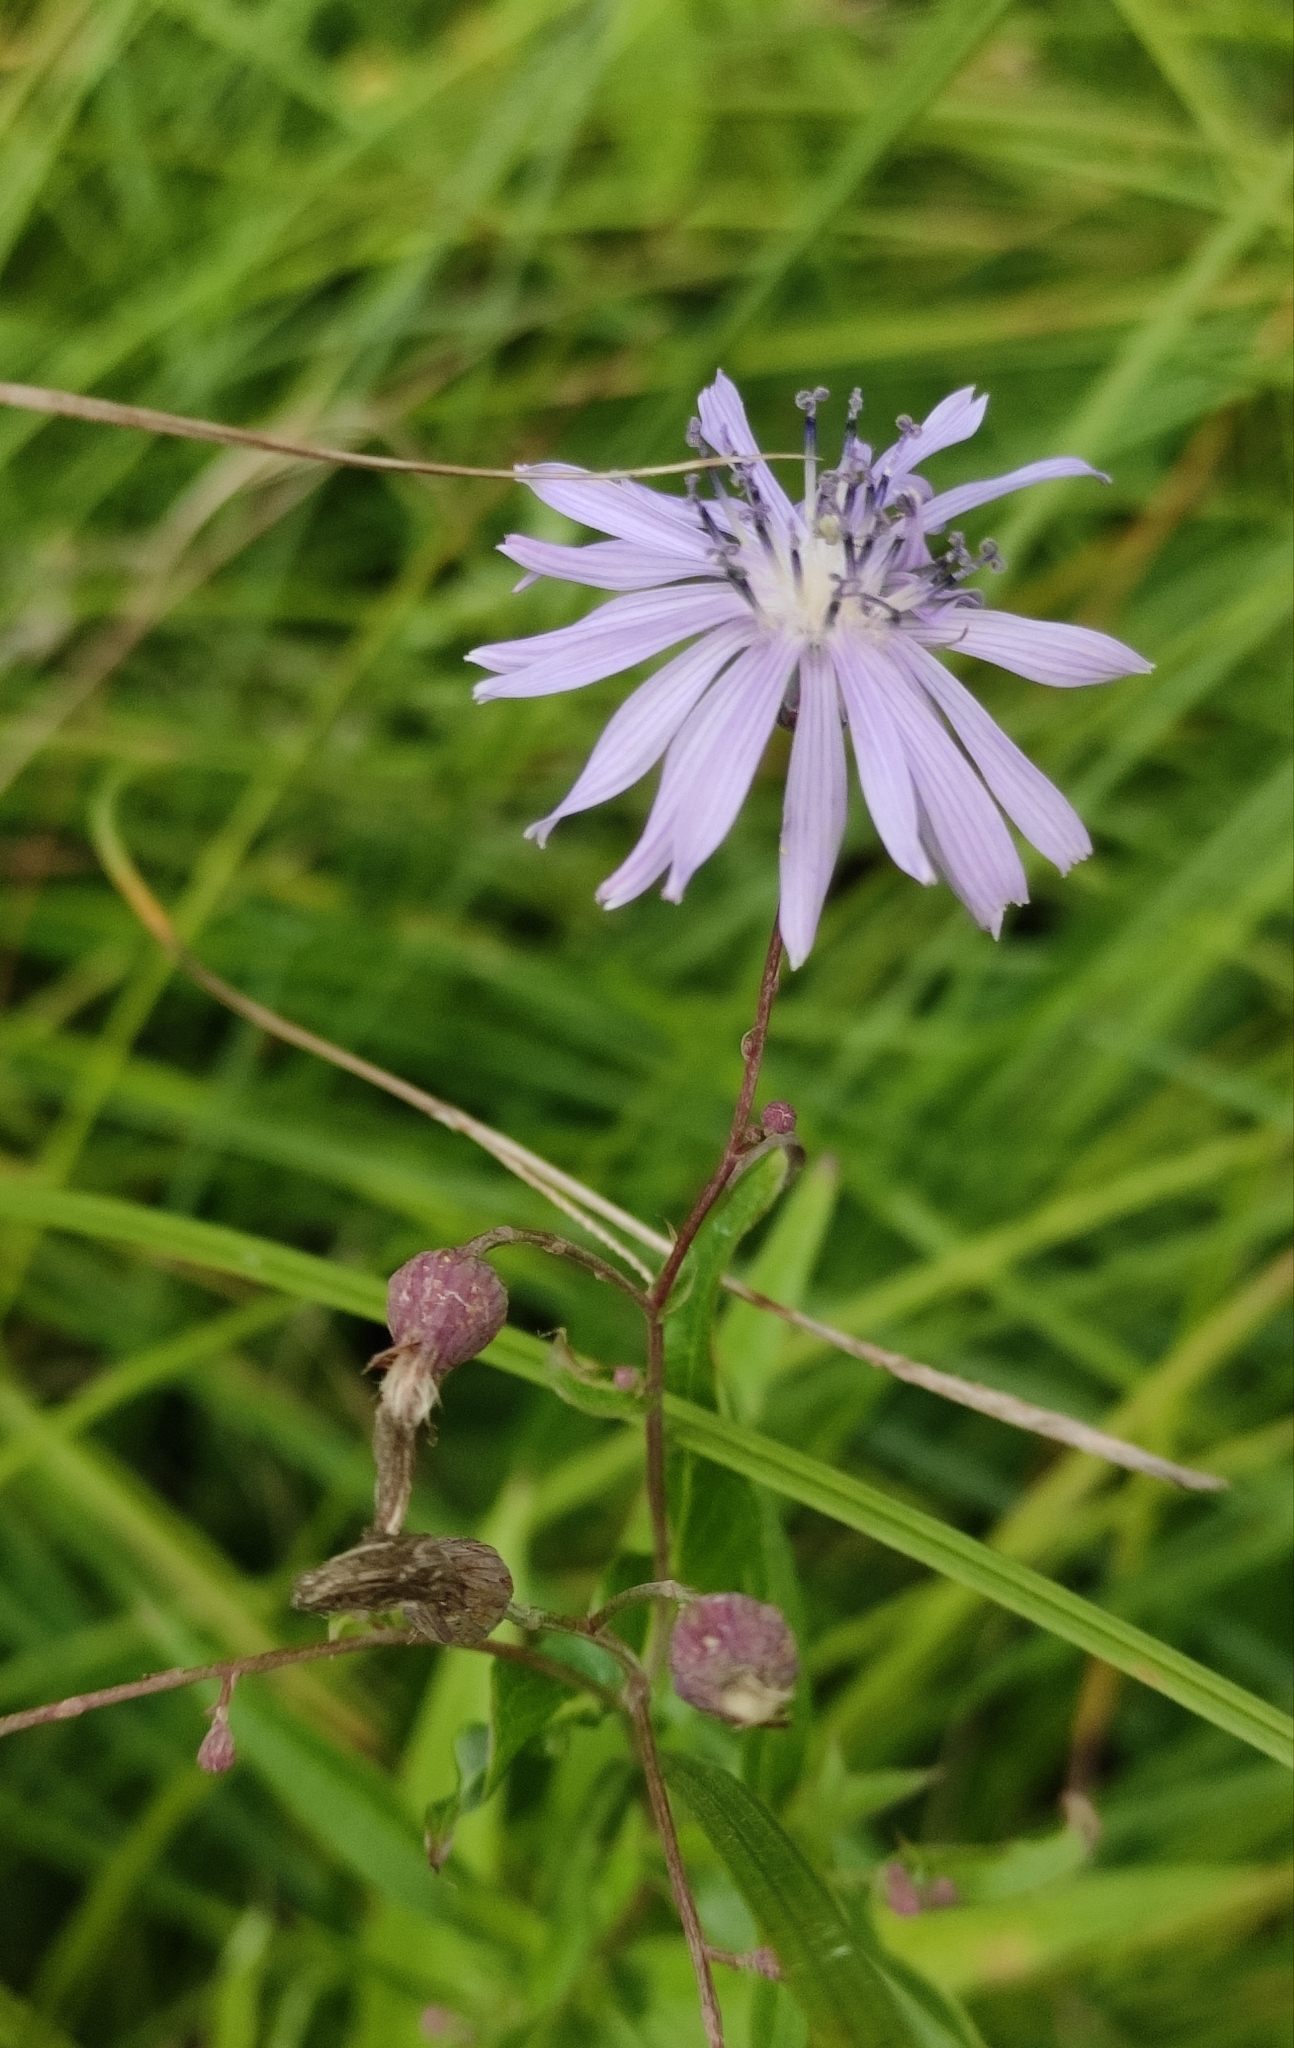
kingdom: Plantae
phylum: Tracheophyta
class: Magnoliopsida
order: Asterales
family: Asteraceae
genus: Lactuca
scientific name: Lactuca sibirica
